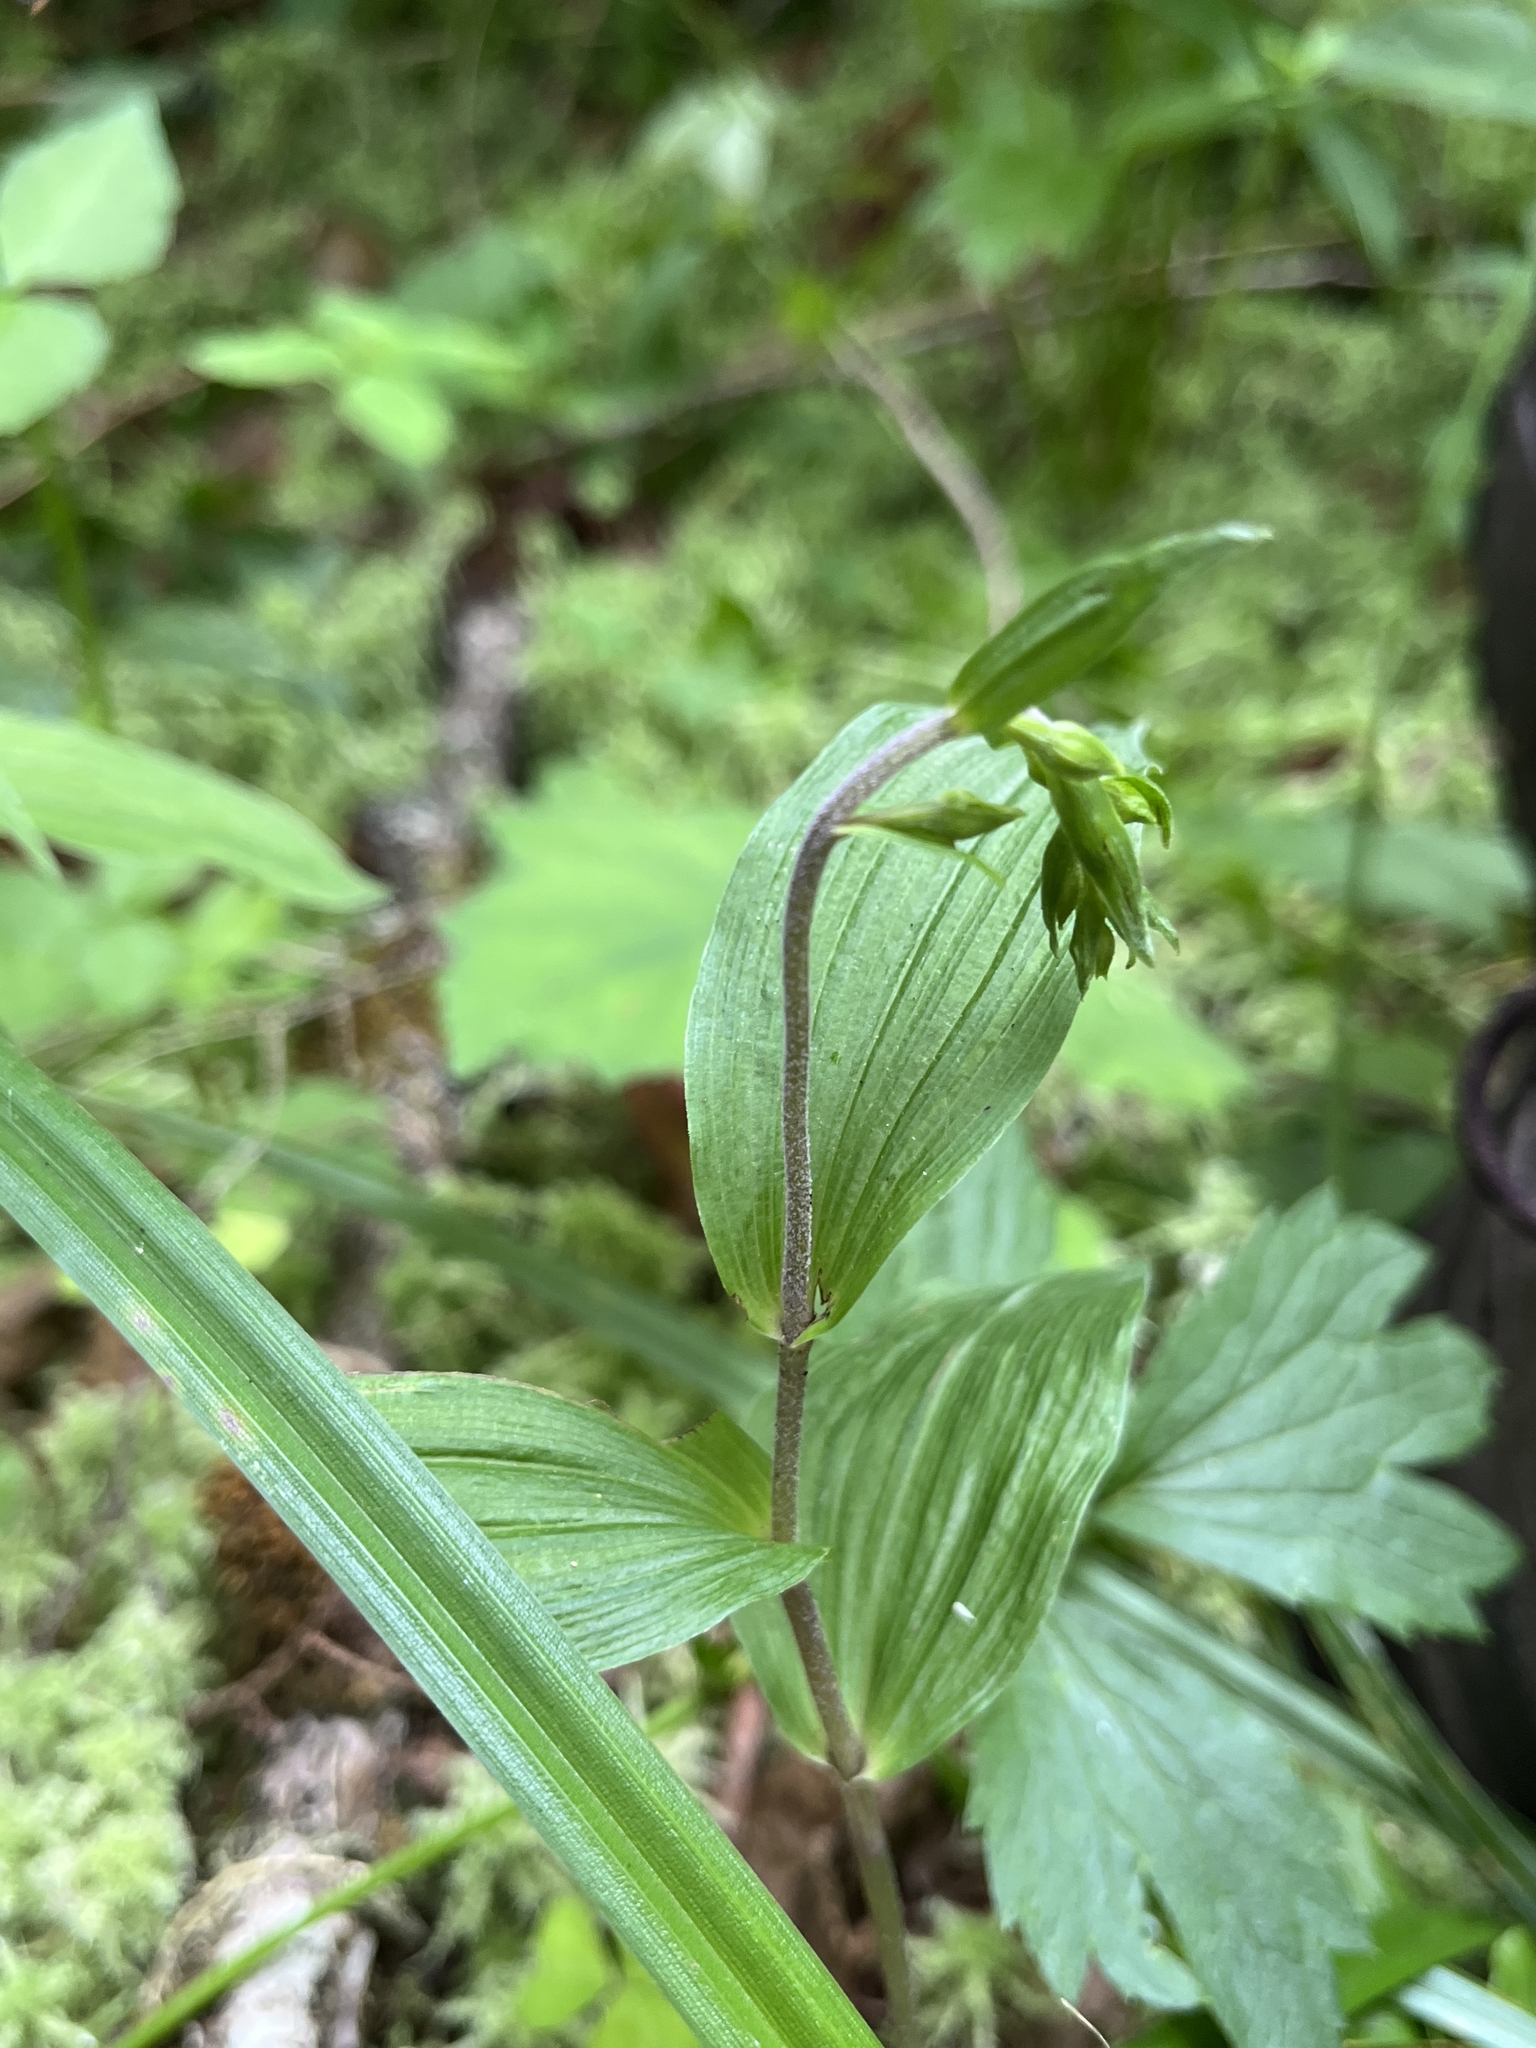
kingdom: Plantae
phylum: Tracheophyta
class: Liliopsida
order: Asparagales
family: Orchidaceae
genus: Epipactis
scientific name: Epipactis helleborine
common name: Broad-leaved helleborine
